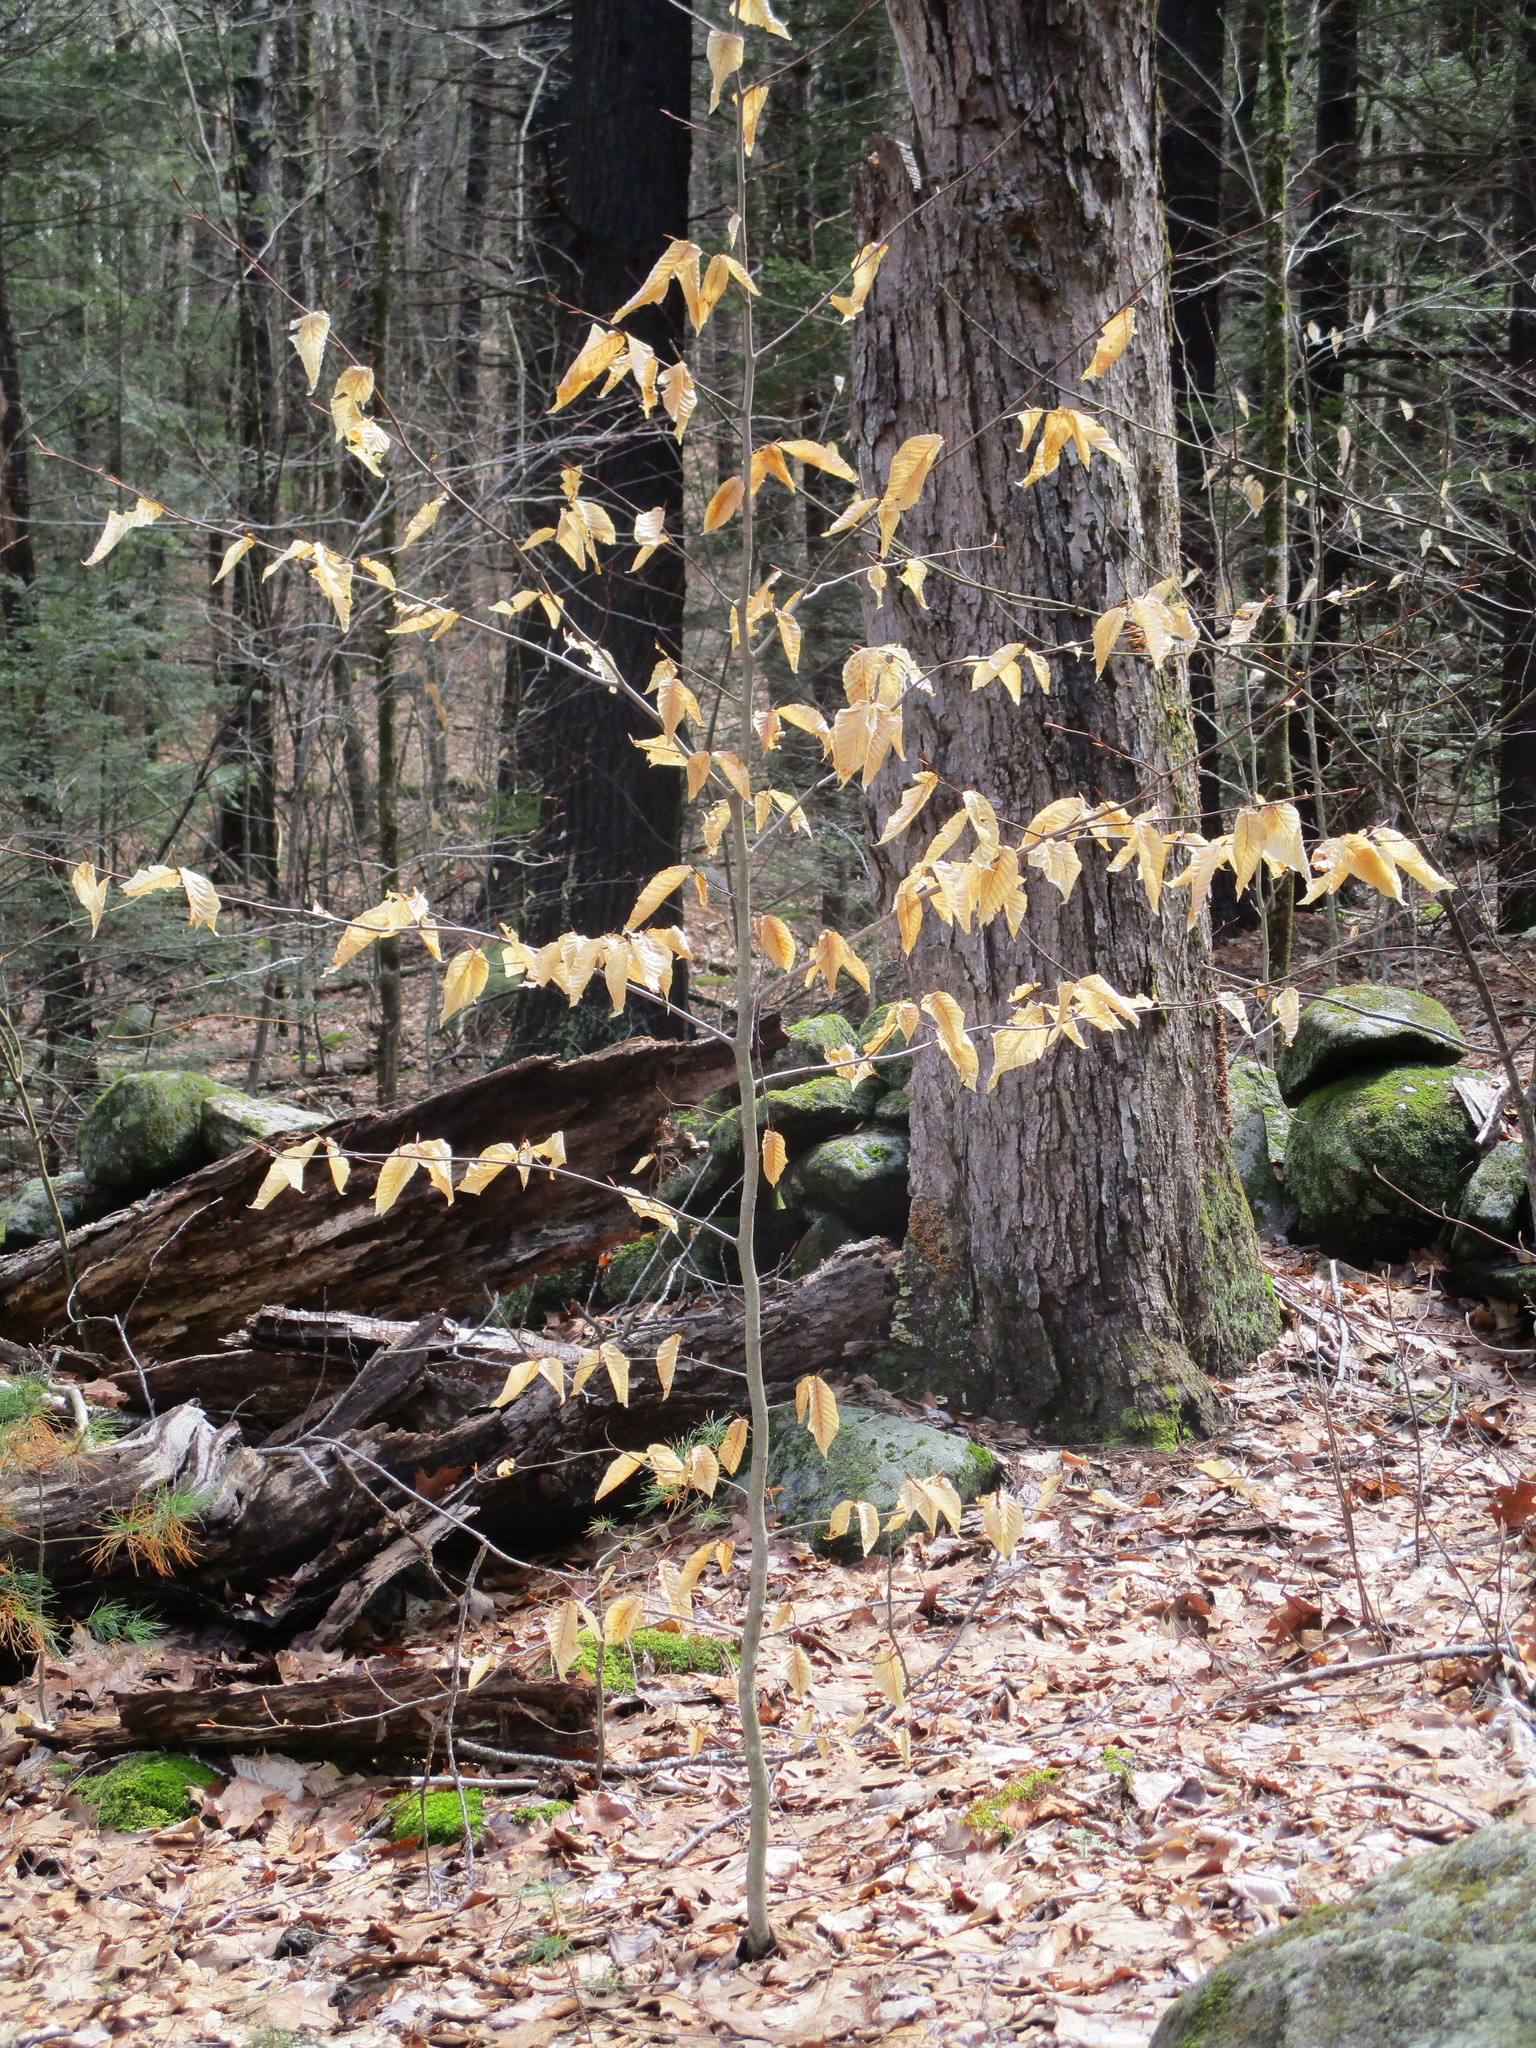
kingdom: Plantae
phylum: Tracheophyta
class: Magnoliopsida
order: Fagales
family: Fagaceae
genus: Fagus
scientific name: Fagus grandifolia
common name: American beech
